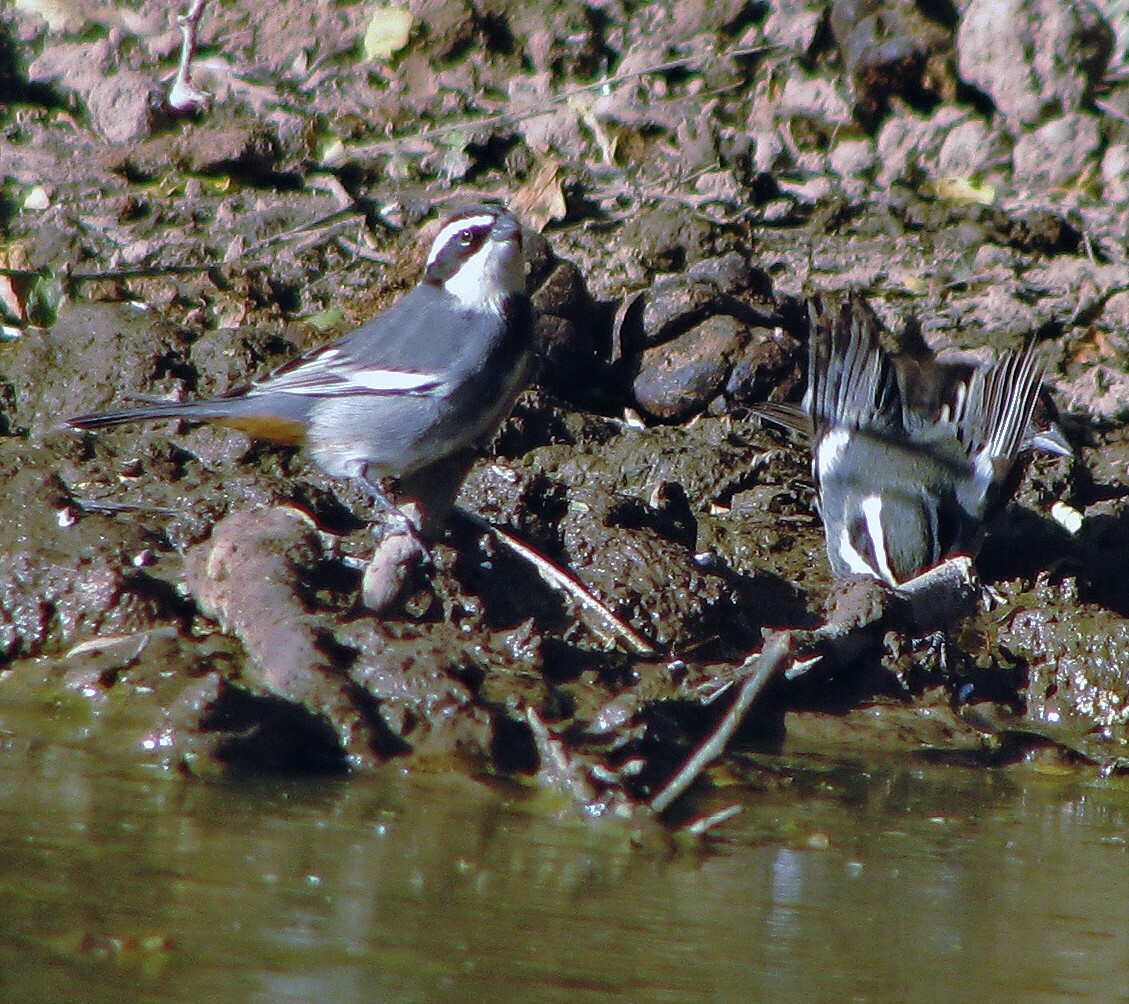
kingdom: Animalia
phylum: Chordata
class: Aves
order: Passeriformes
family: Thraupidae
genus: Microspingus
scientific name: Microspingus torquatus
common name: Ringed warbling-finch
